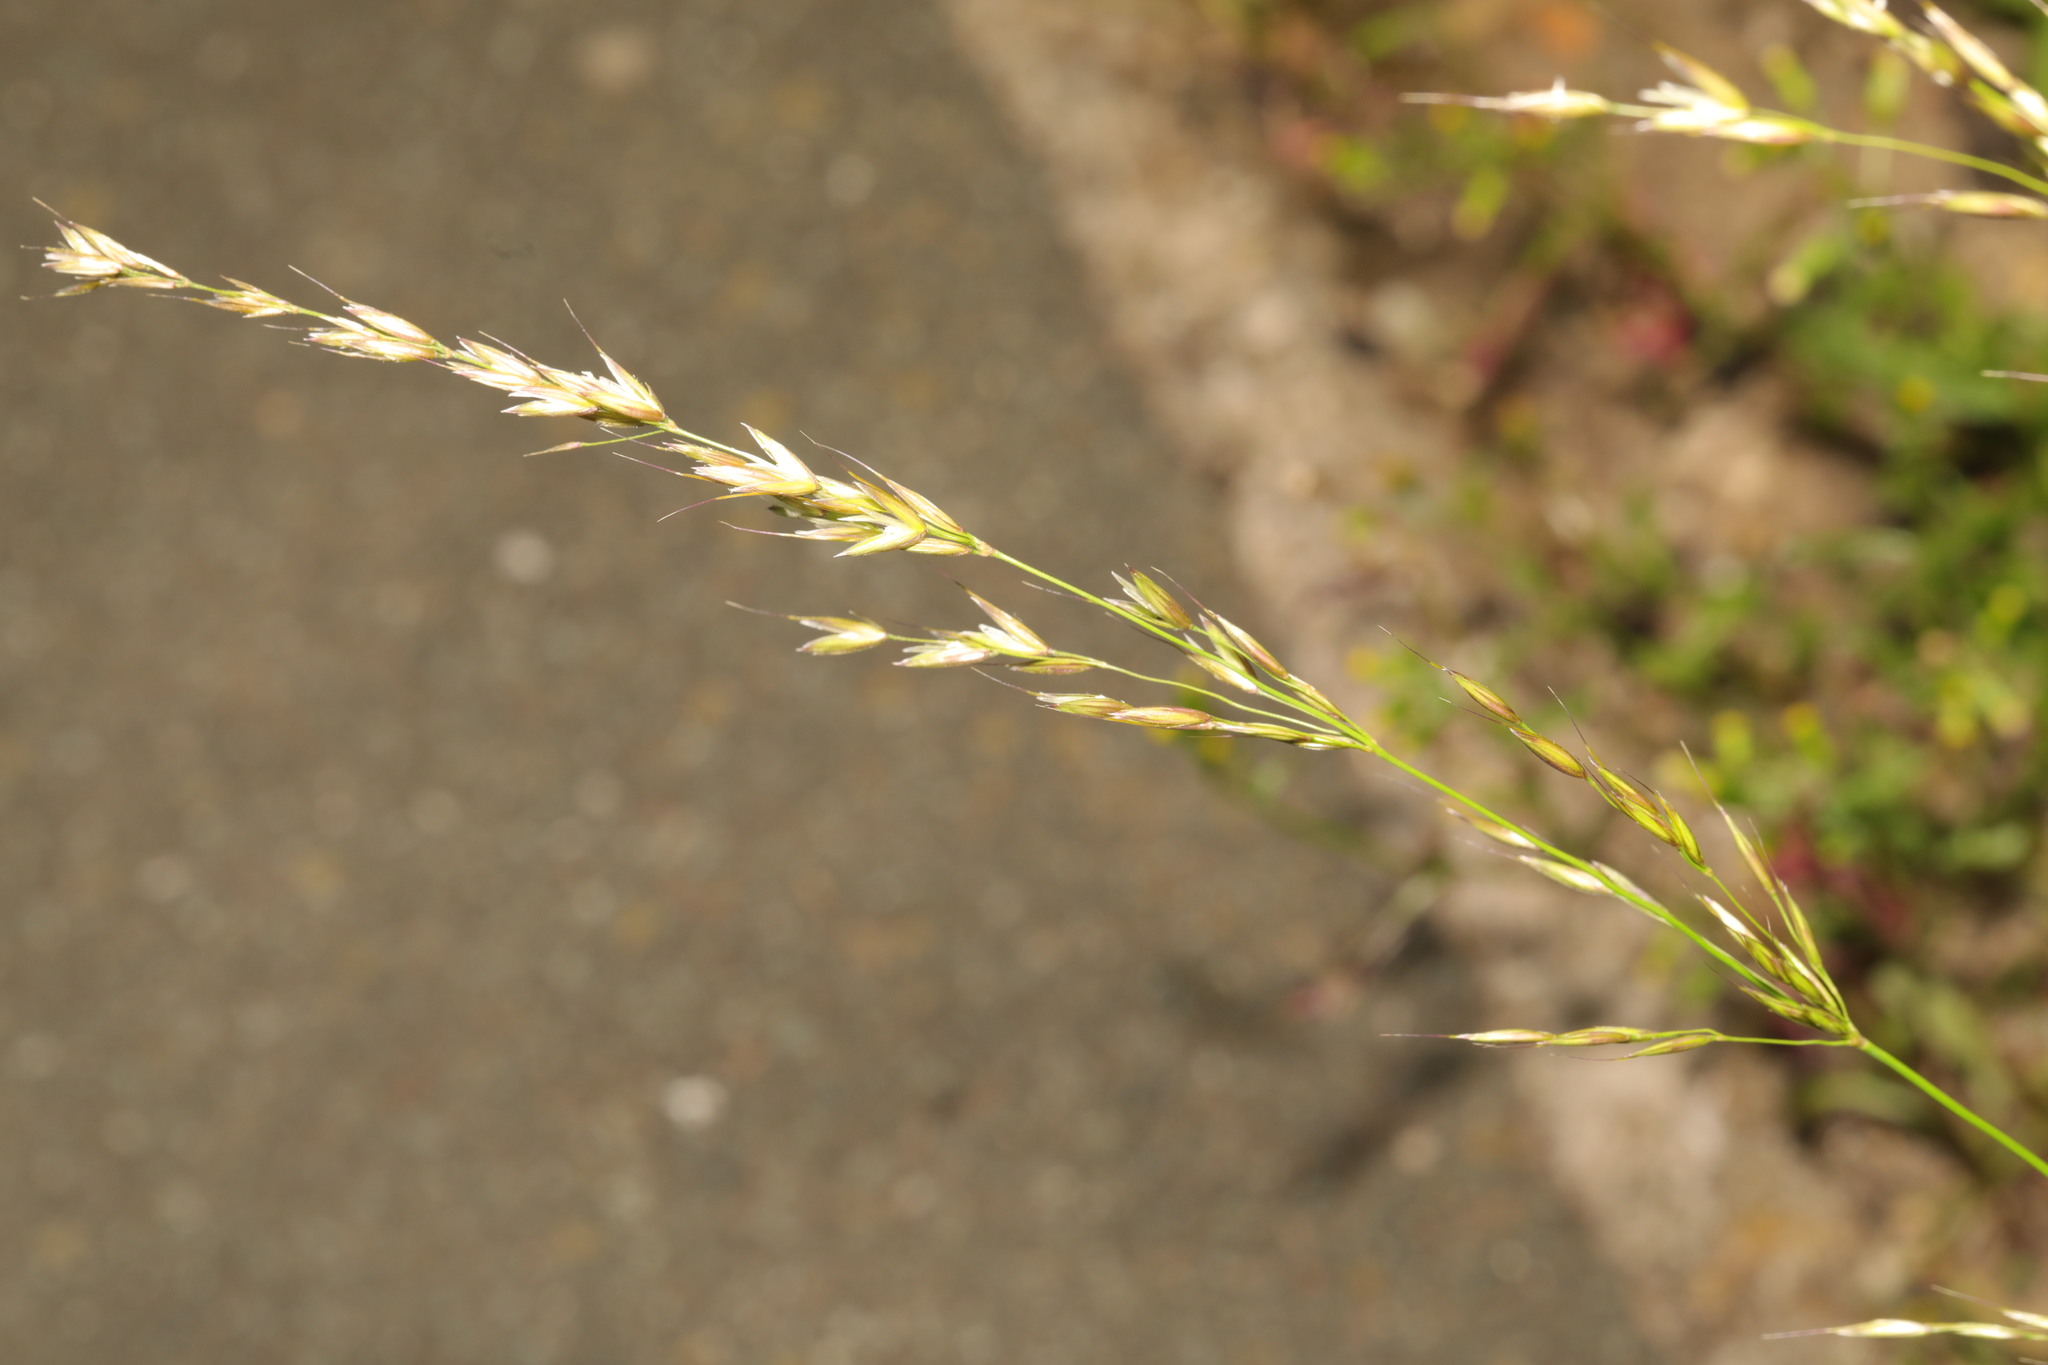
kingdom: Plantae
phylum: Tracheophyta
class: Liliopsida
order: Poales
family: Poaceae
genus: Arrhenatherum
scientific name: Arrhenatherum elatius
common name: Tall oatgrass
